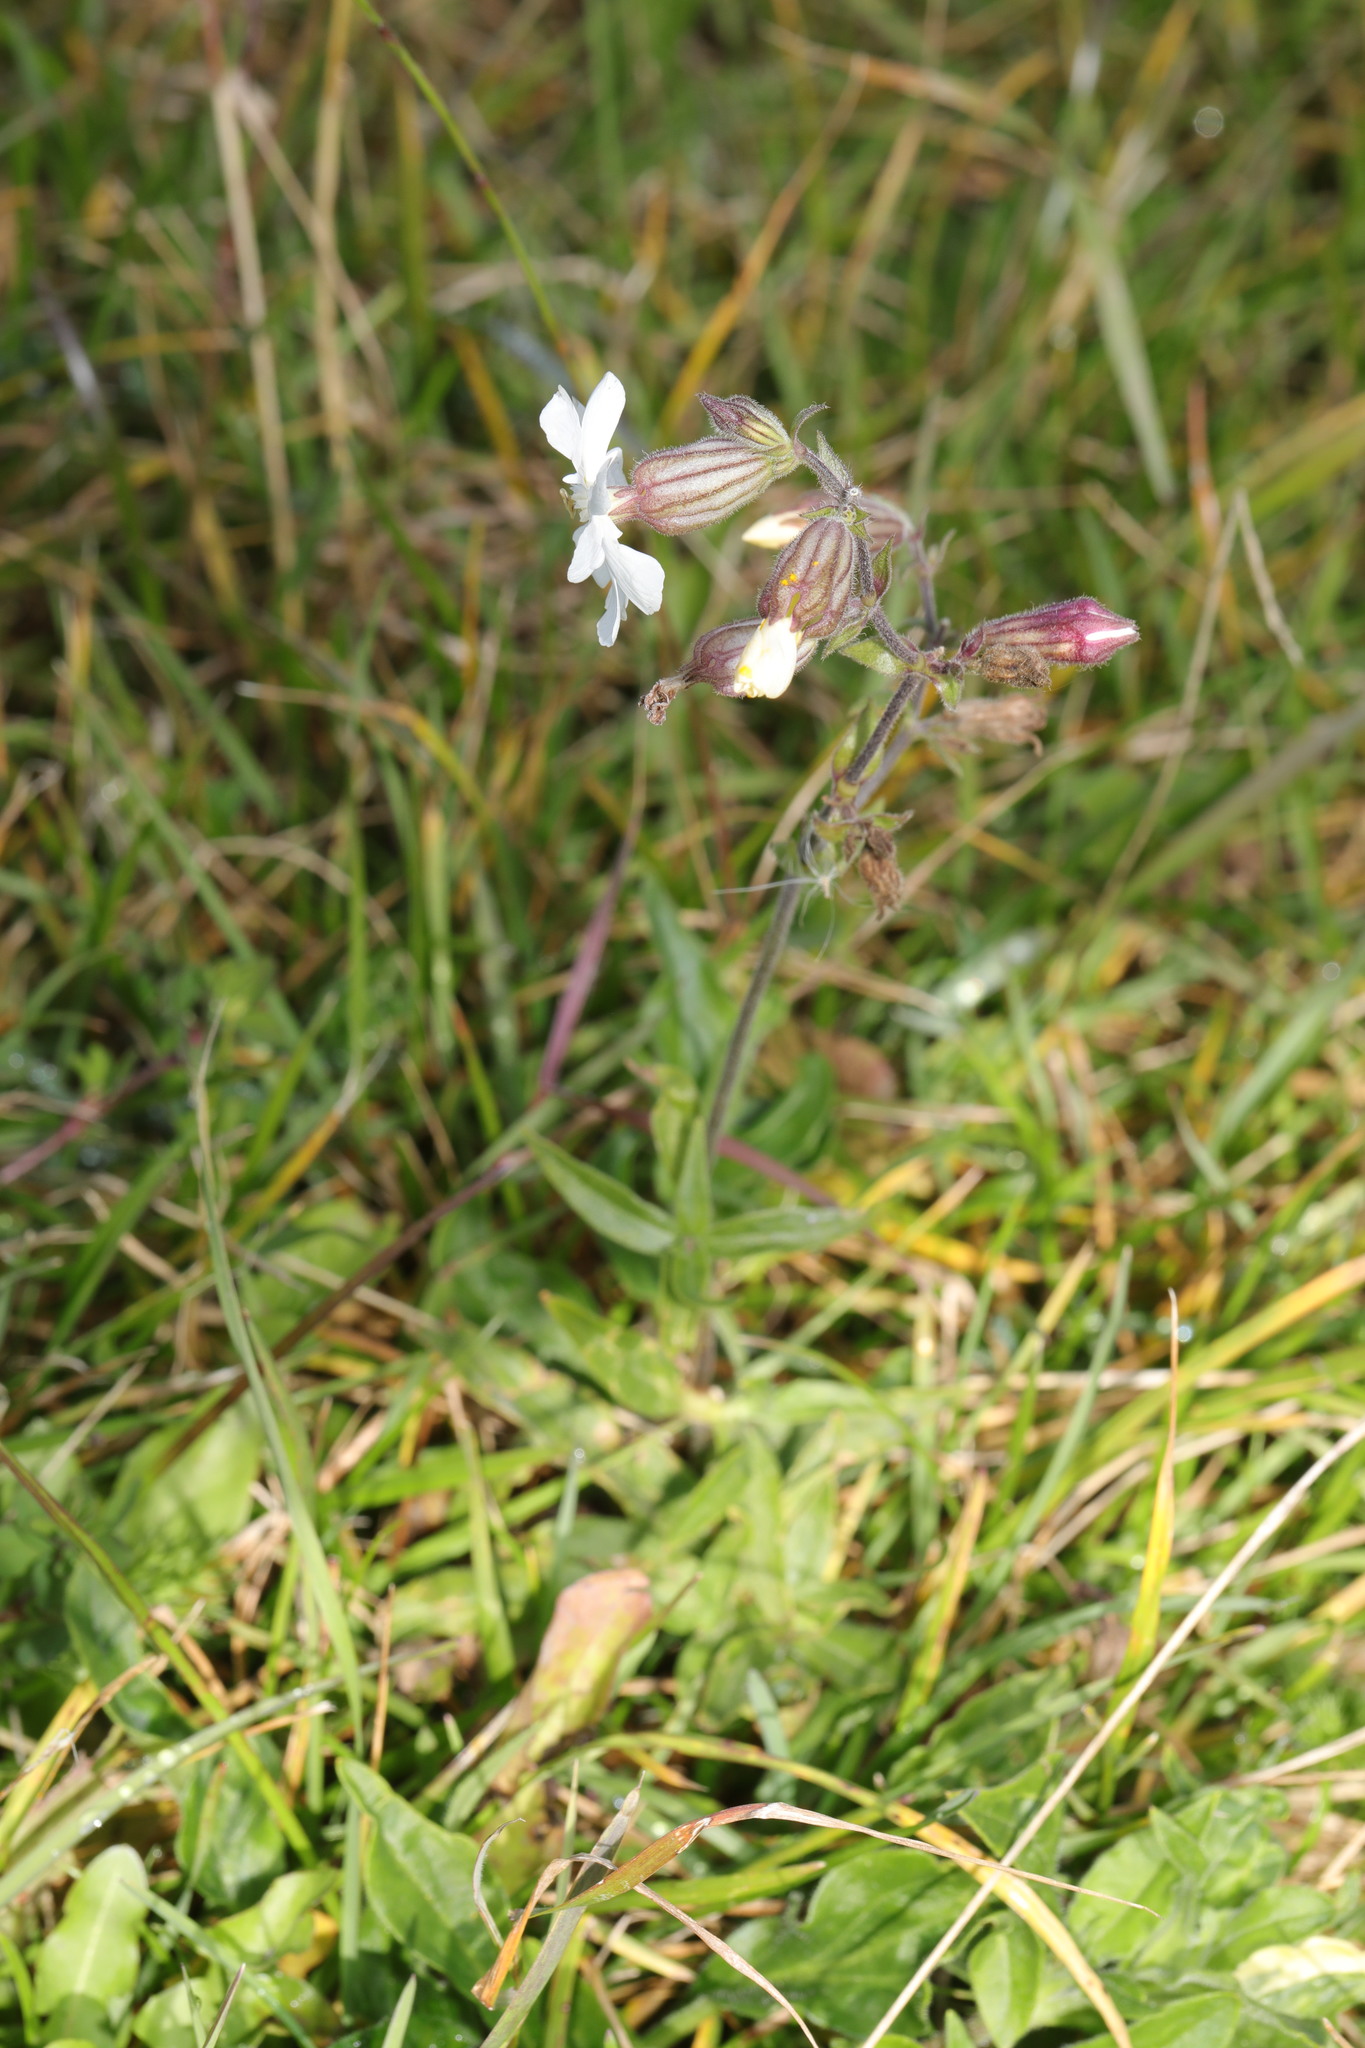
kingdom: Plantae
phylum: Tracheophyta
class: Magnoliopsida
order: Caryophyllales
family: Caryophyllaceae
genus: Silene
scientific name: Silene latifolia
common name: White campion
